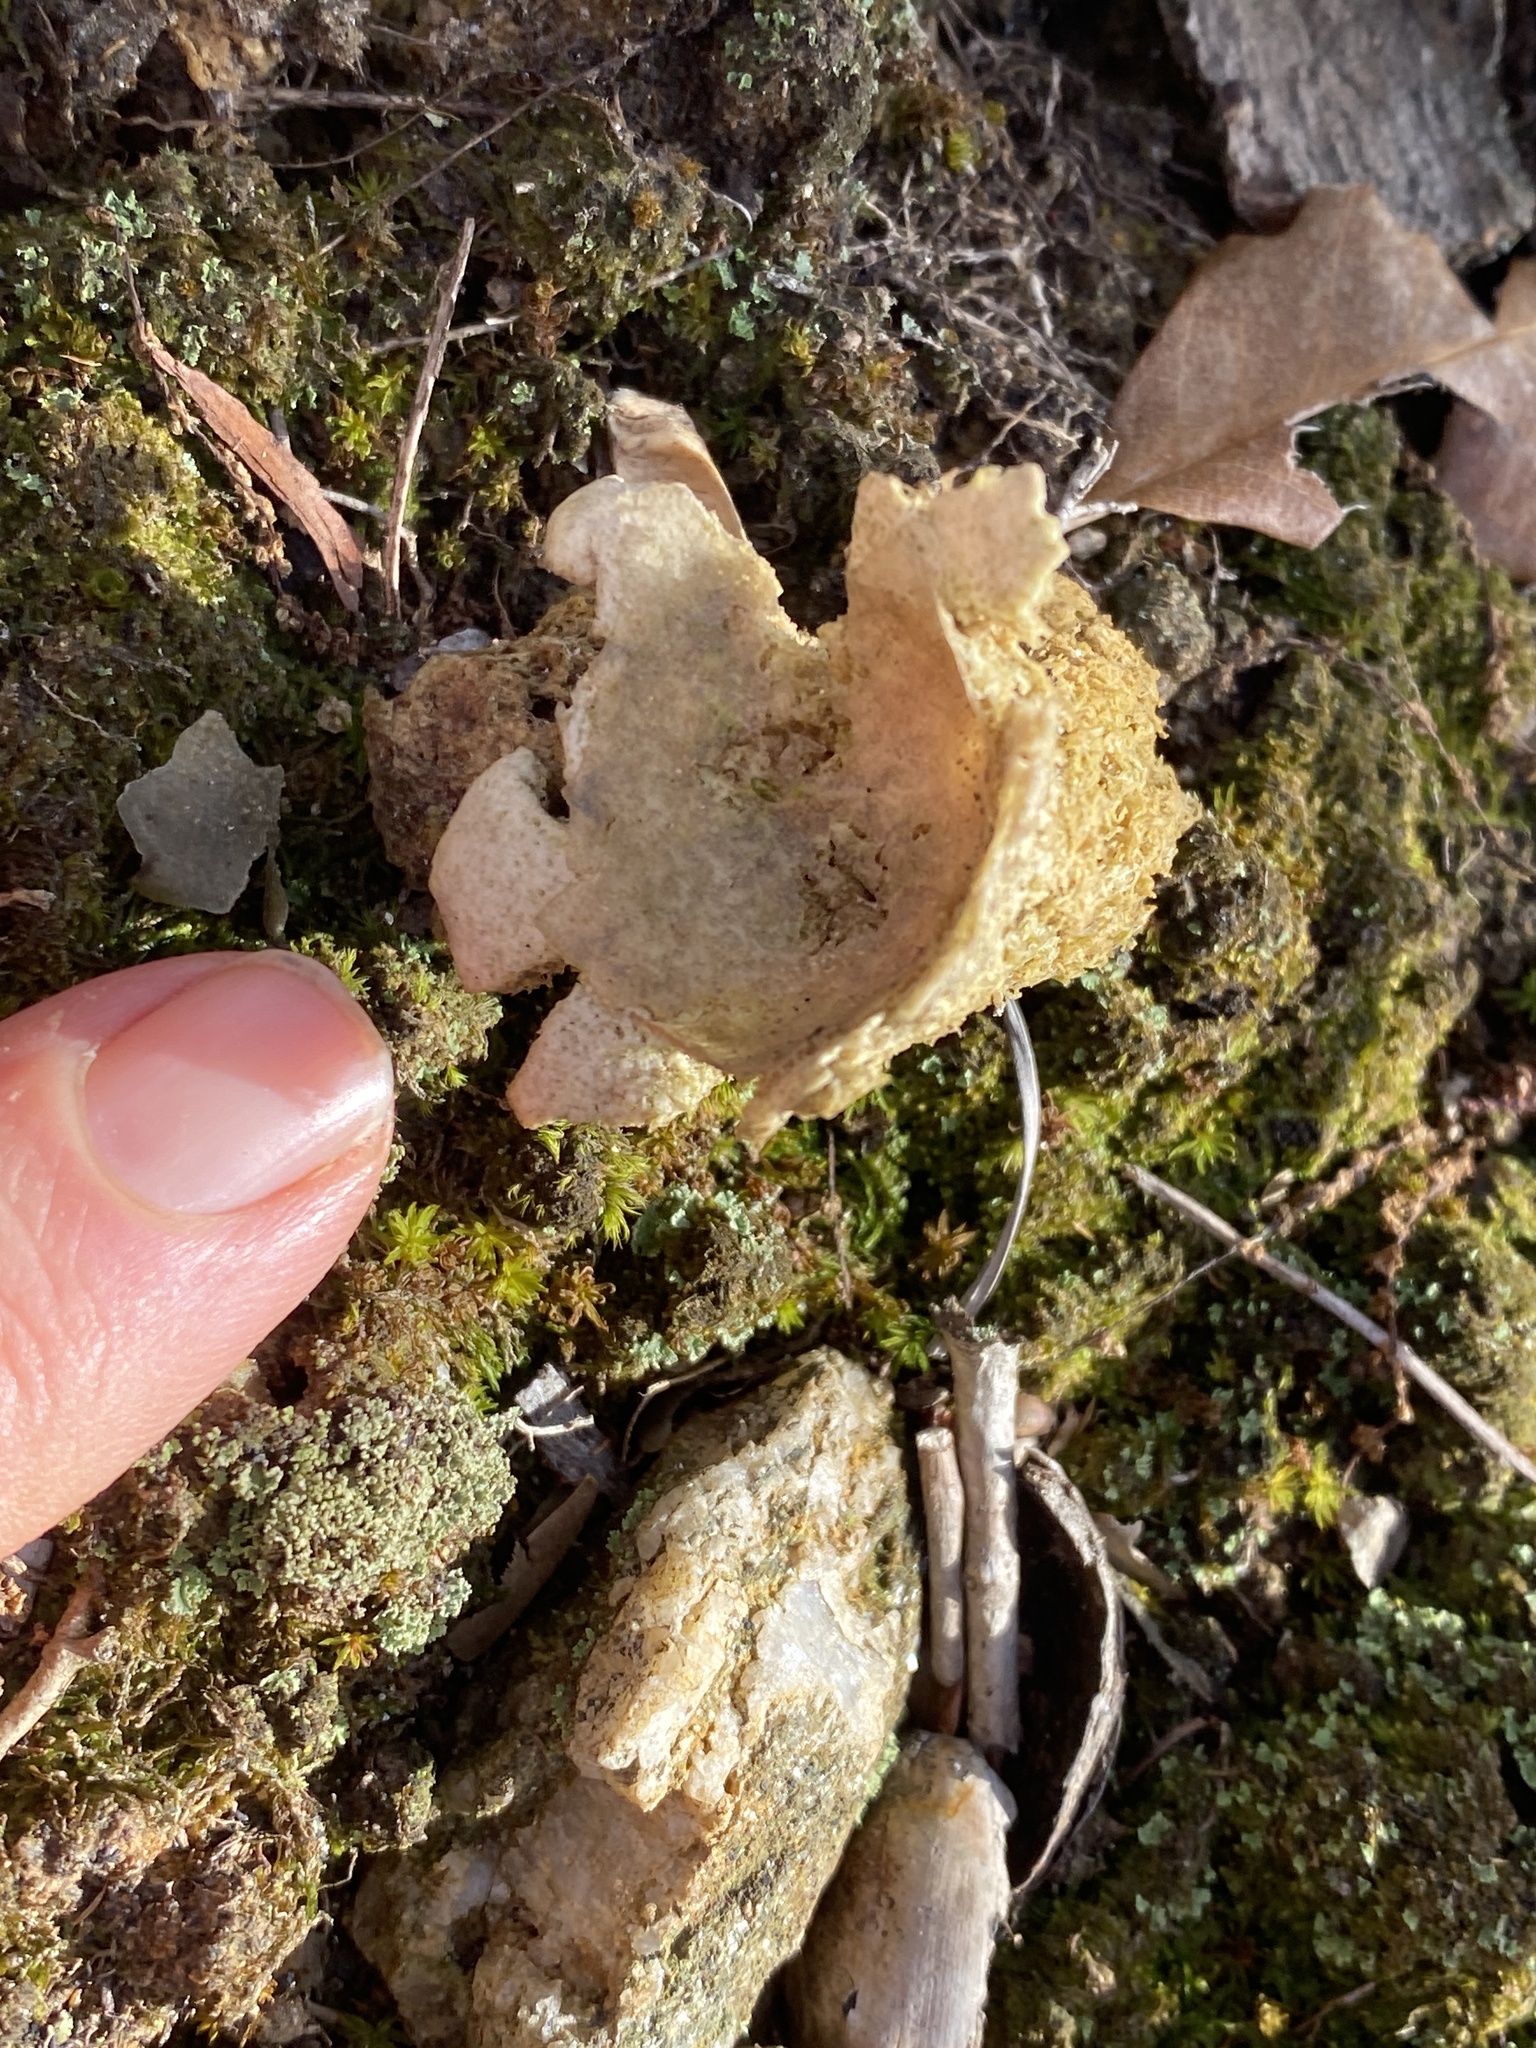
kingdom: Fungi
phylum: Basidiomycota
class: Agaricomycetes
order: Boletales
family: Calostomataceae
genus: Calostoma
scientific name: Calostoma lutescens
